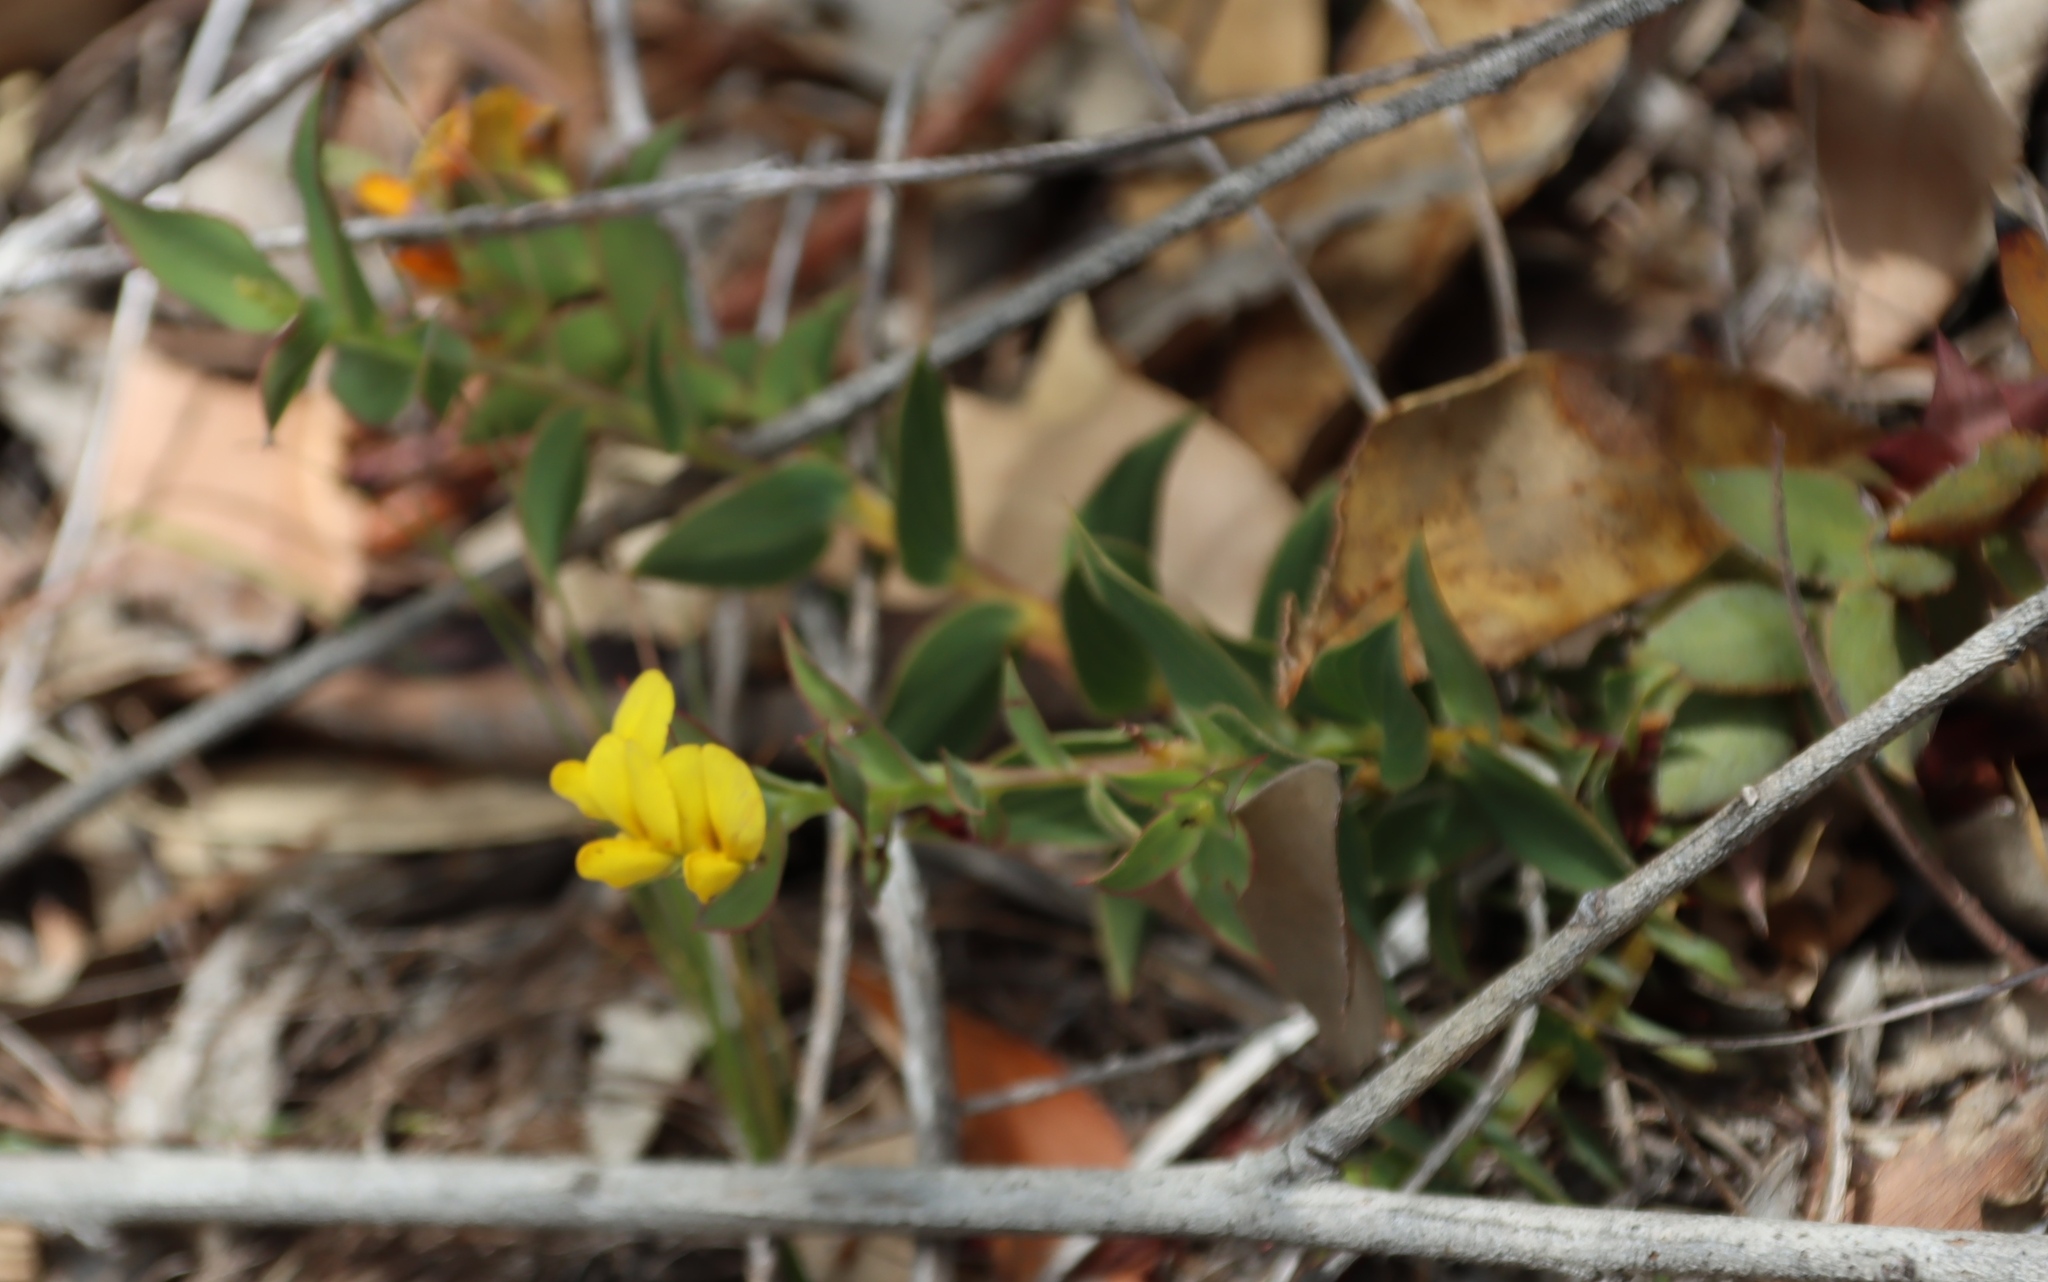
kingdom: Plantae
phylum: Tracheophyta
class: Magnoliopsida
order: Fabales
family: Fabaceae
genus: Aspalathus
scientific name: Aspalathus crenata
